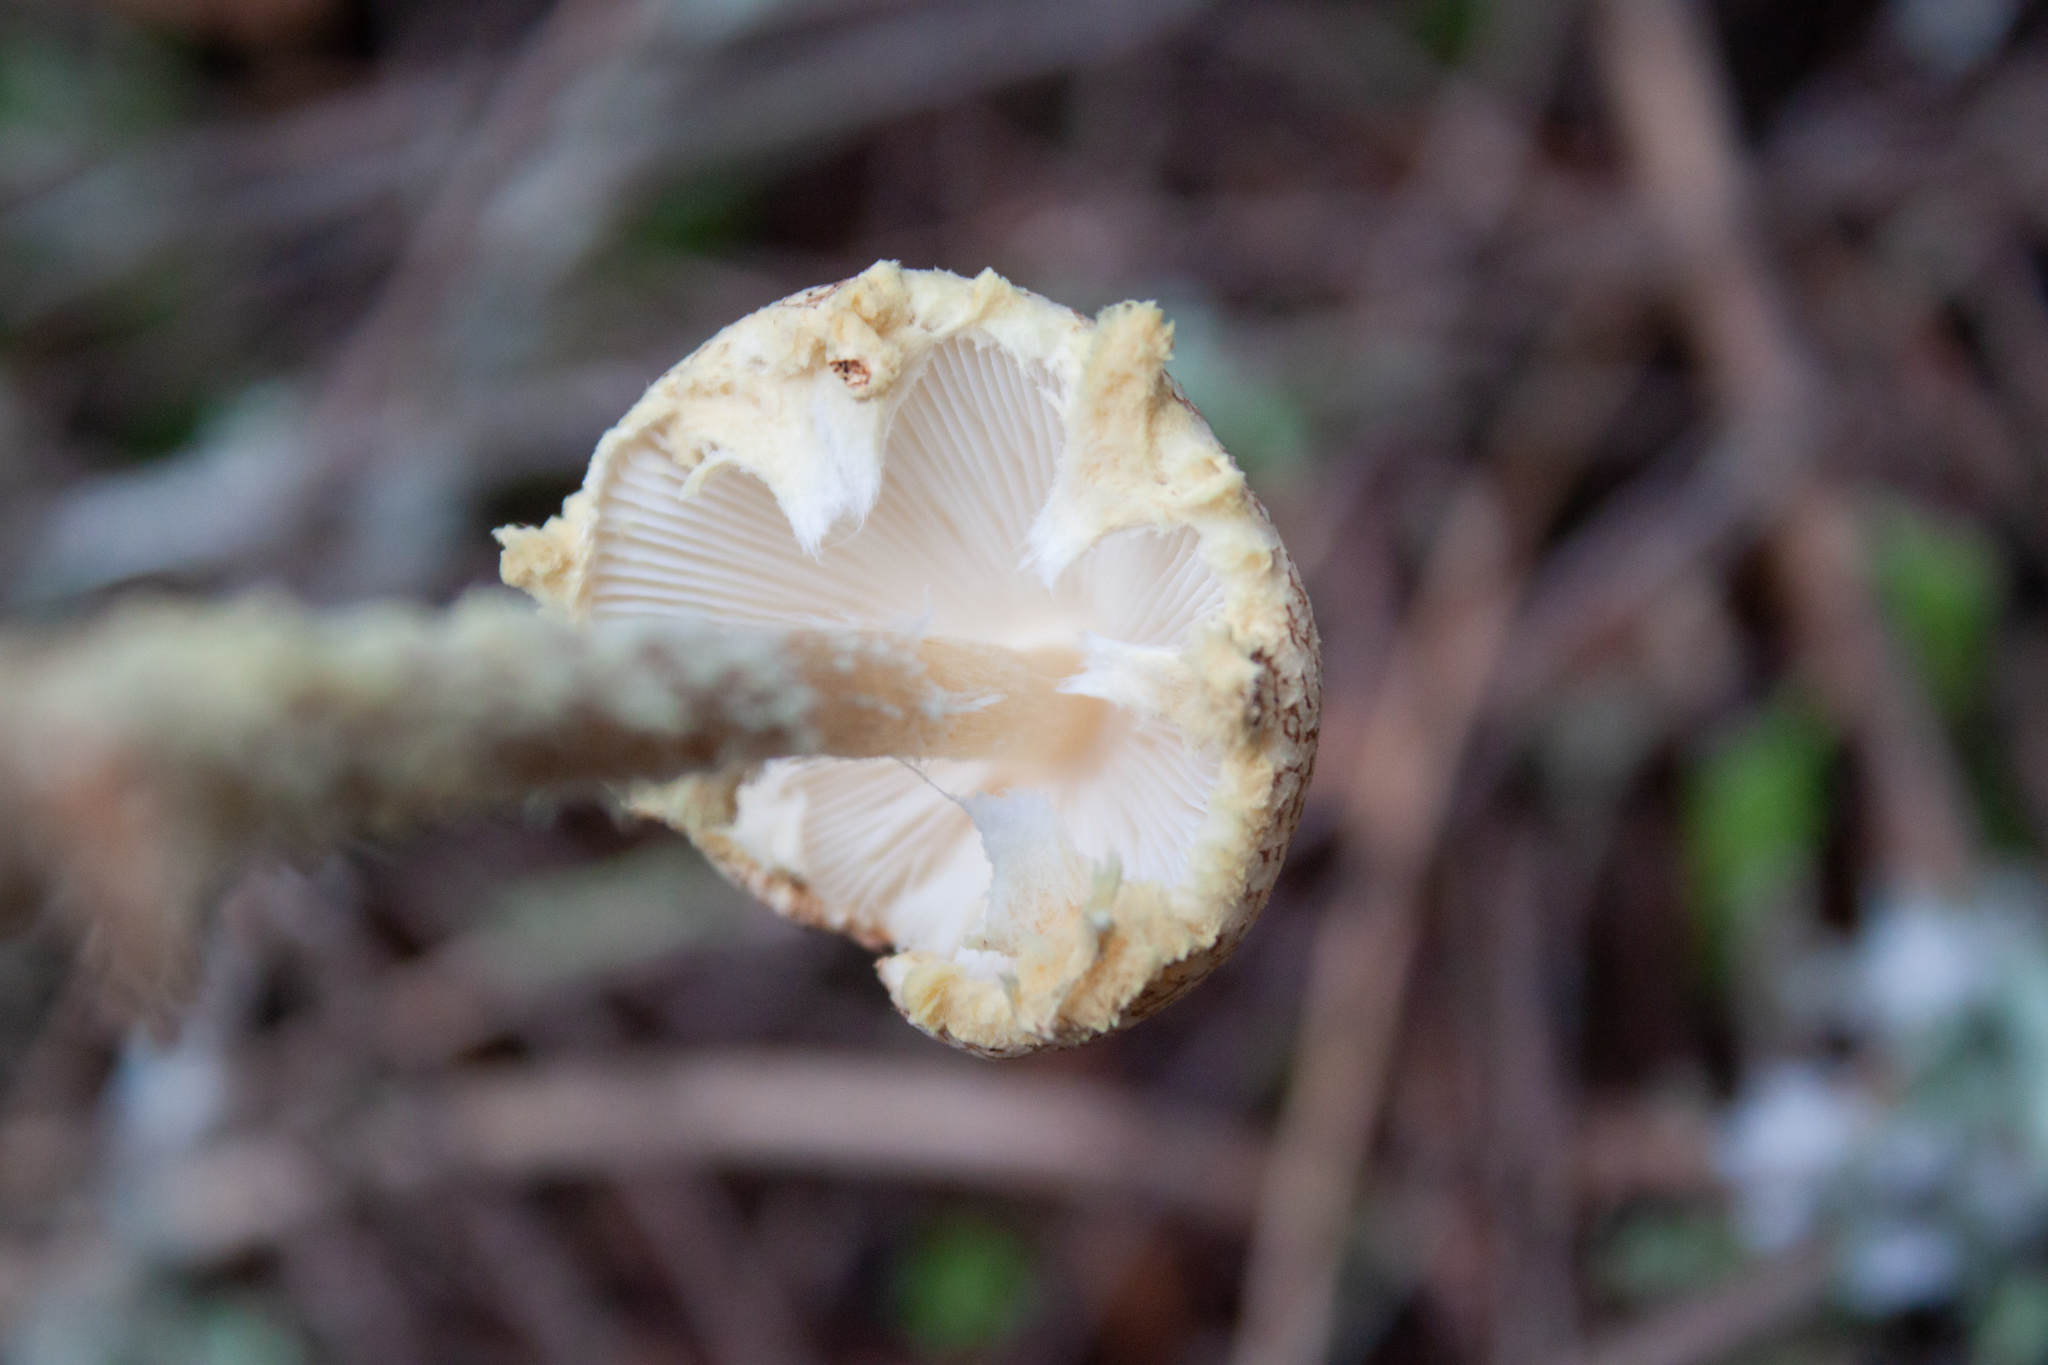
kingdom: Fungi
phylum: Basidiomycota
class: Agaricomycetes
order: Agaricales
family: Agaricaceae
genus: Lepiota
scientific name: Lepiota magnispora
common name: Yellowfoot dapperling
